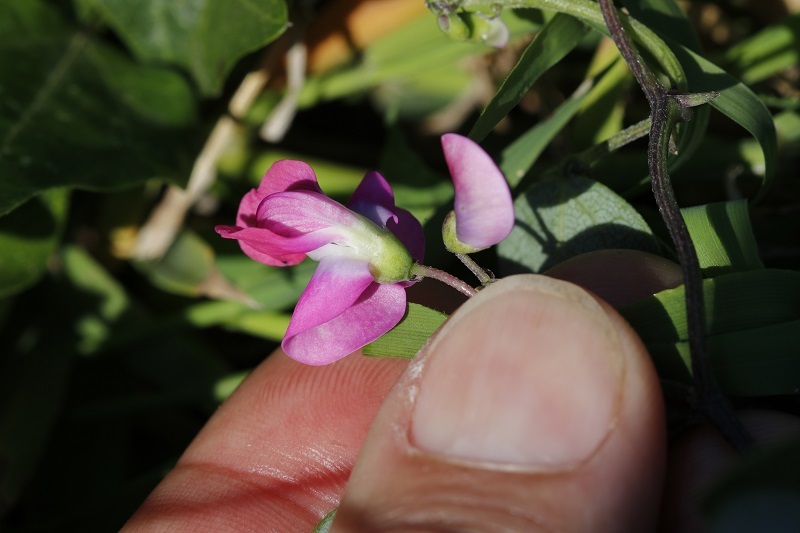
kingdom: Plantae
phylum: Tracheophyta
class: Magnoliopsida
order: Fabales
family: Fabaceae
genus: Dipogon
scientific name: Dipogon lignosus
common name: Okie bean
